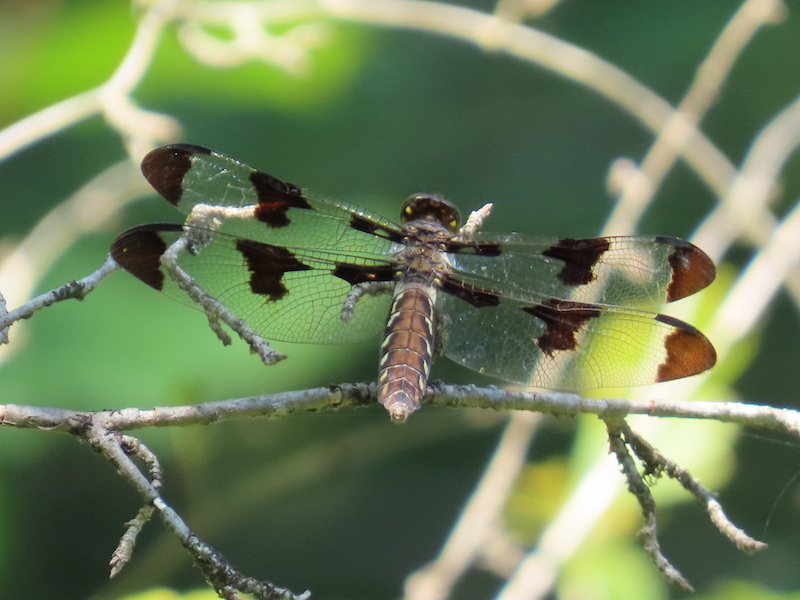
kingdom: Animalia
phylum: Arthropoda
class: Insecta
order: Odonata
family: Libellulidae
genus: Plathemis
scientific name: Plathemis lydia
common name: Common whitetail
